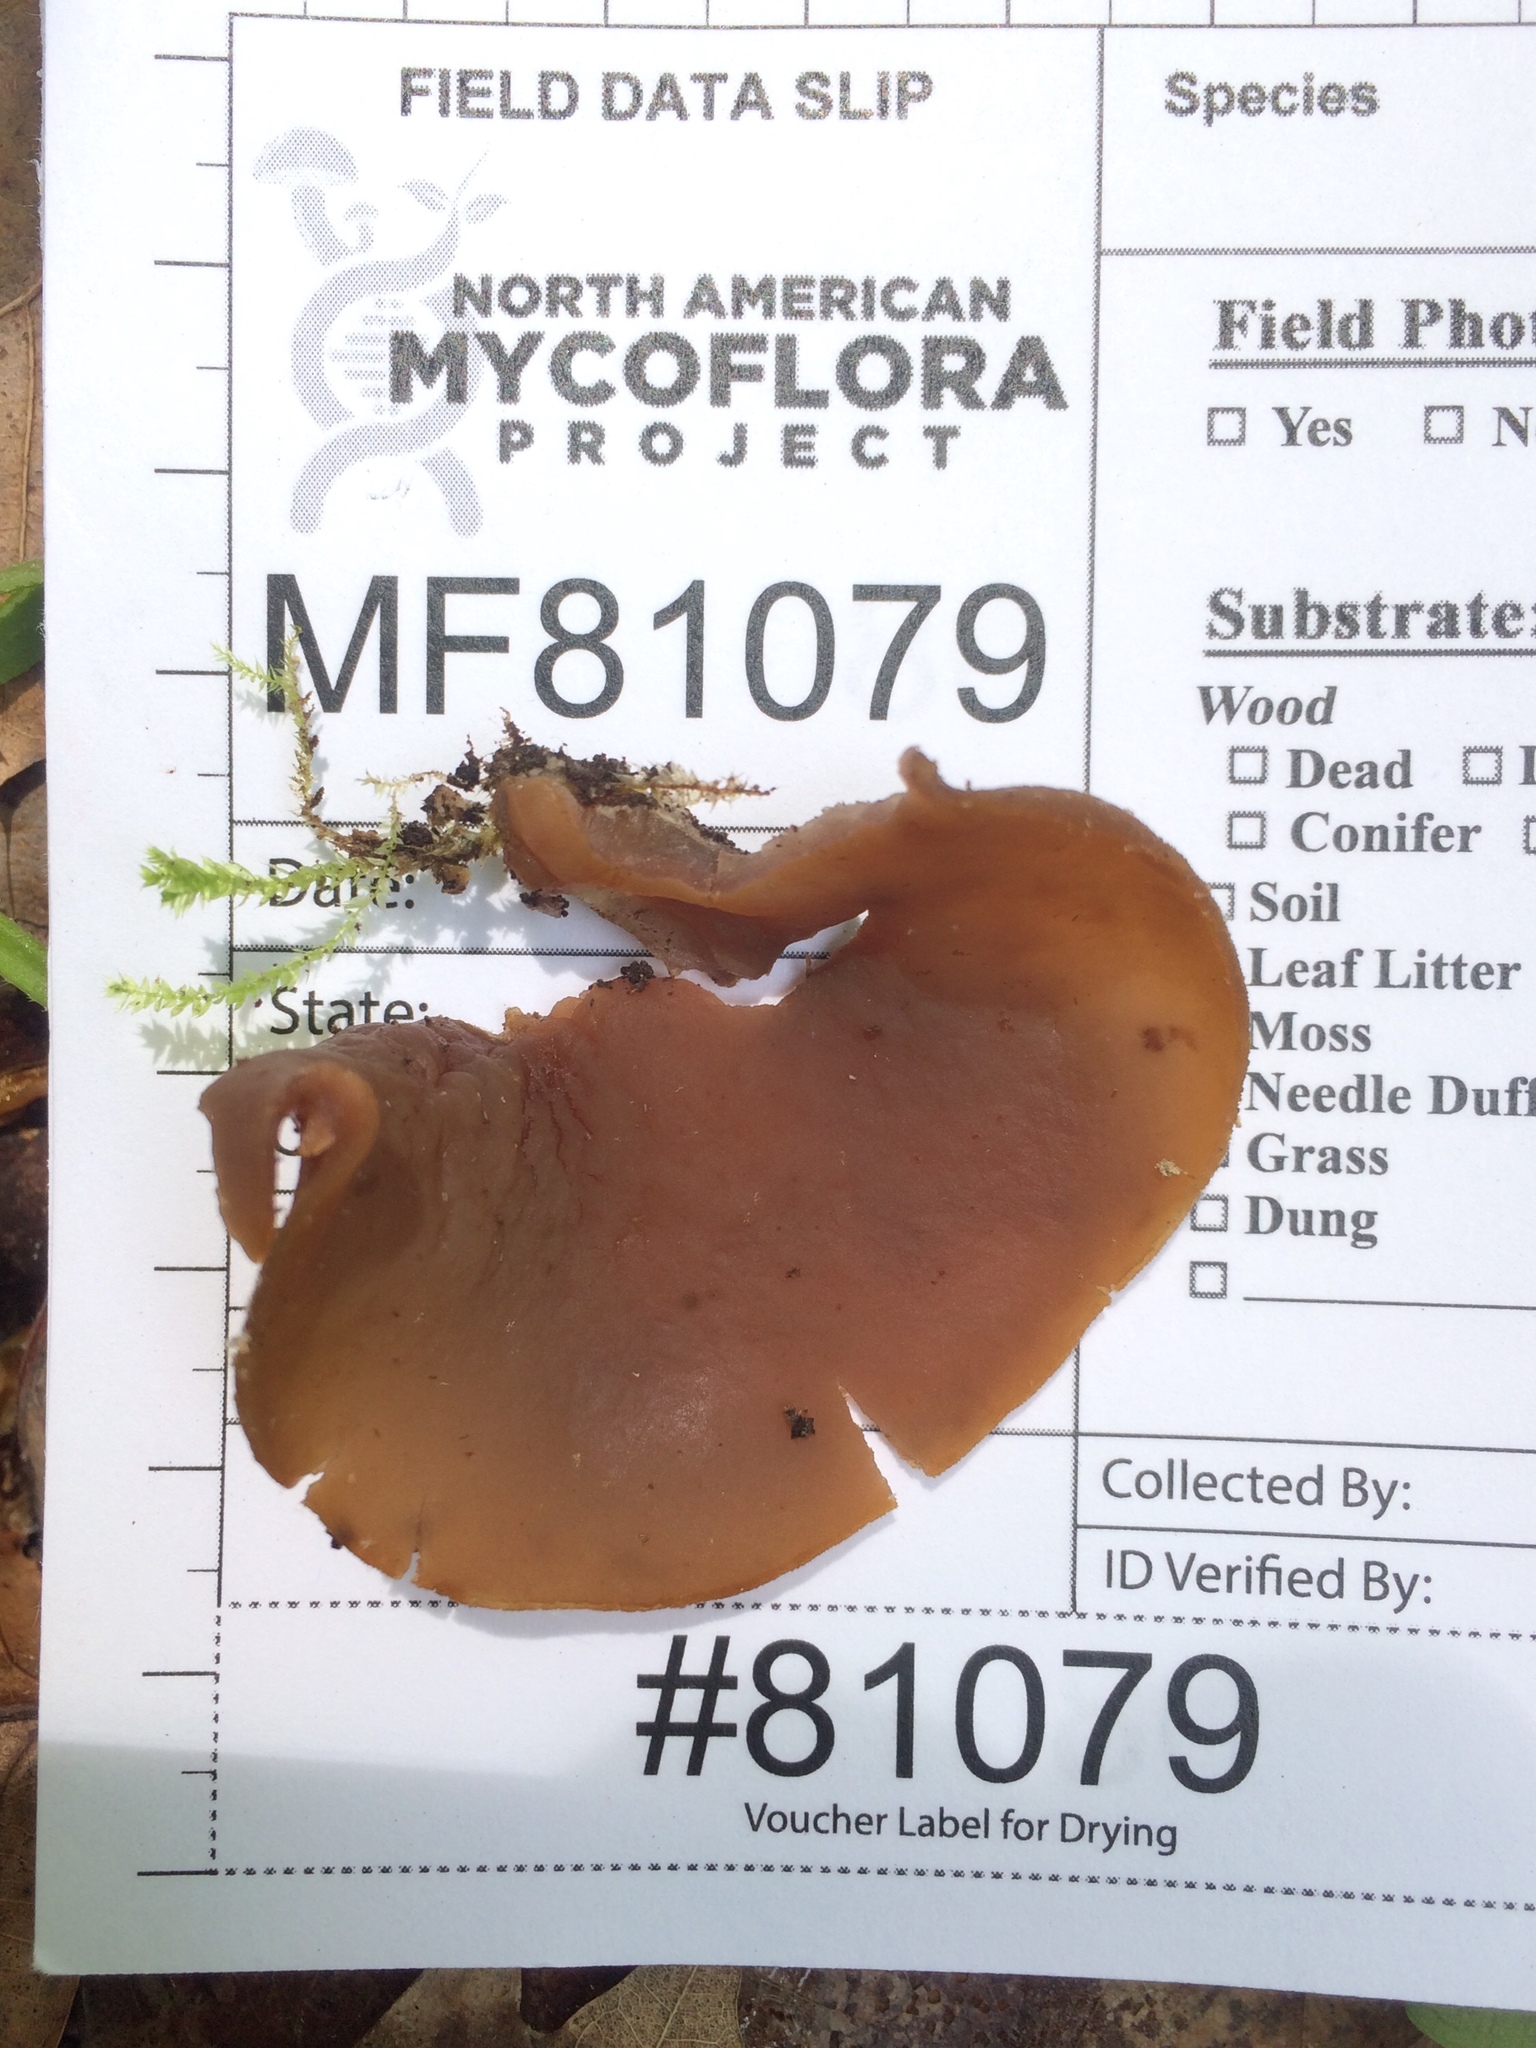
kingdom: Fungi
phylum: Ascomycota
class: Pezizomycetes
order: Pezizales
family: Pezizaceae
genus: Phylloscypha
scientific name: Phylloscypha phyllogena
